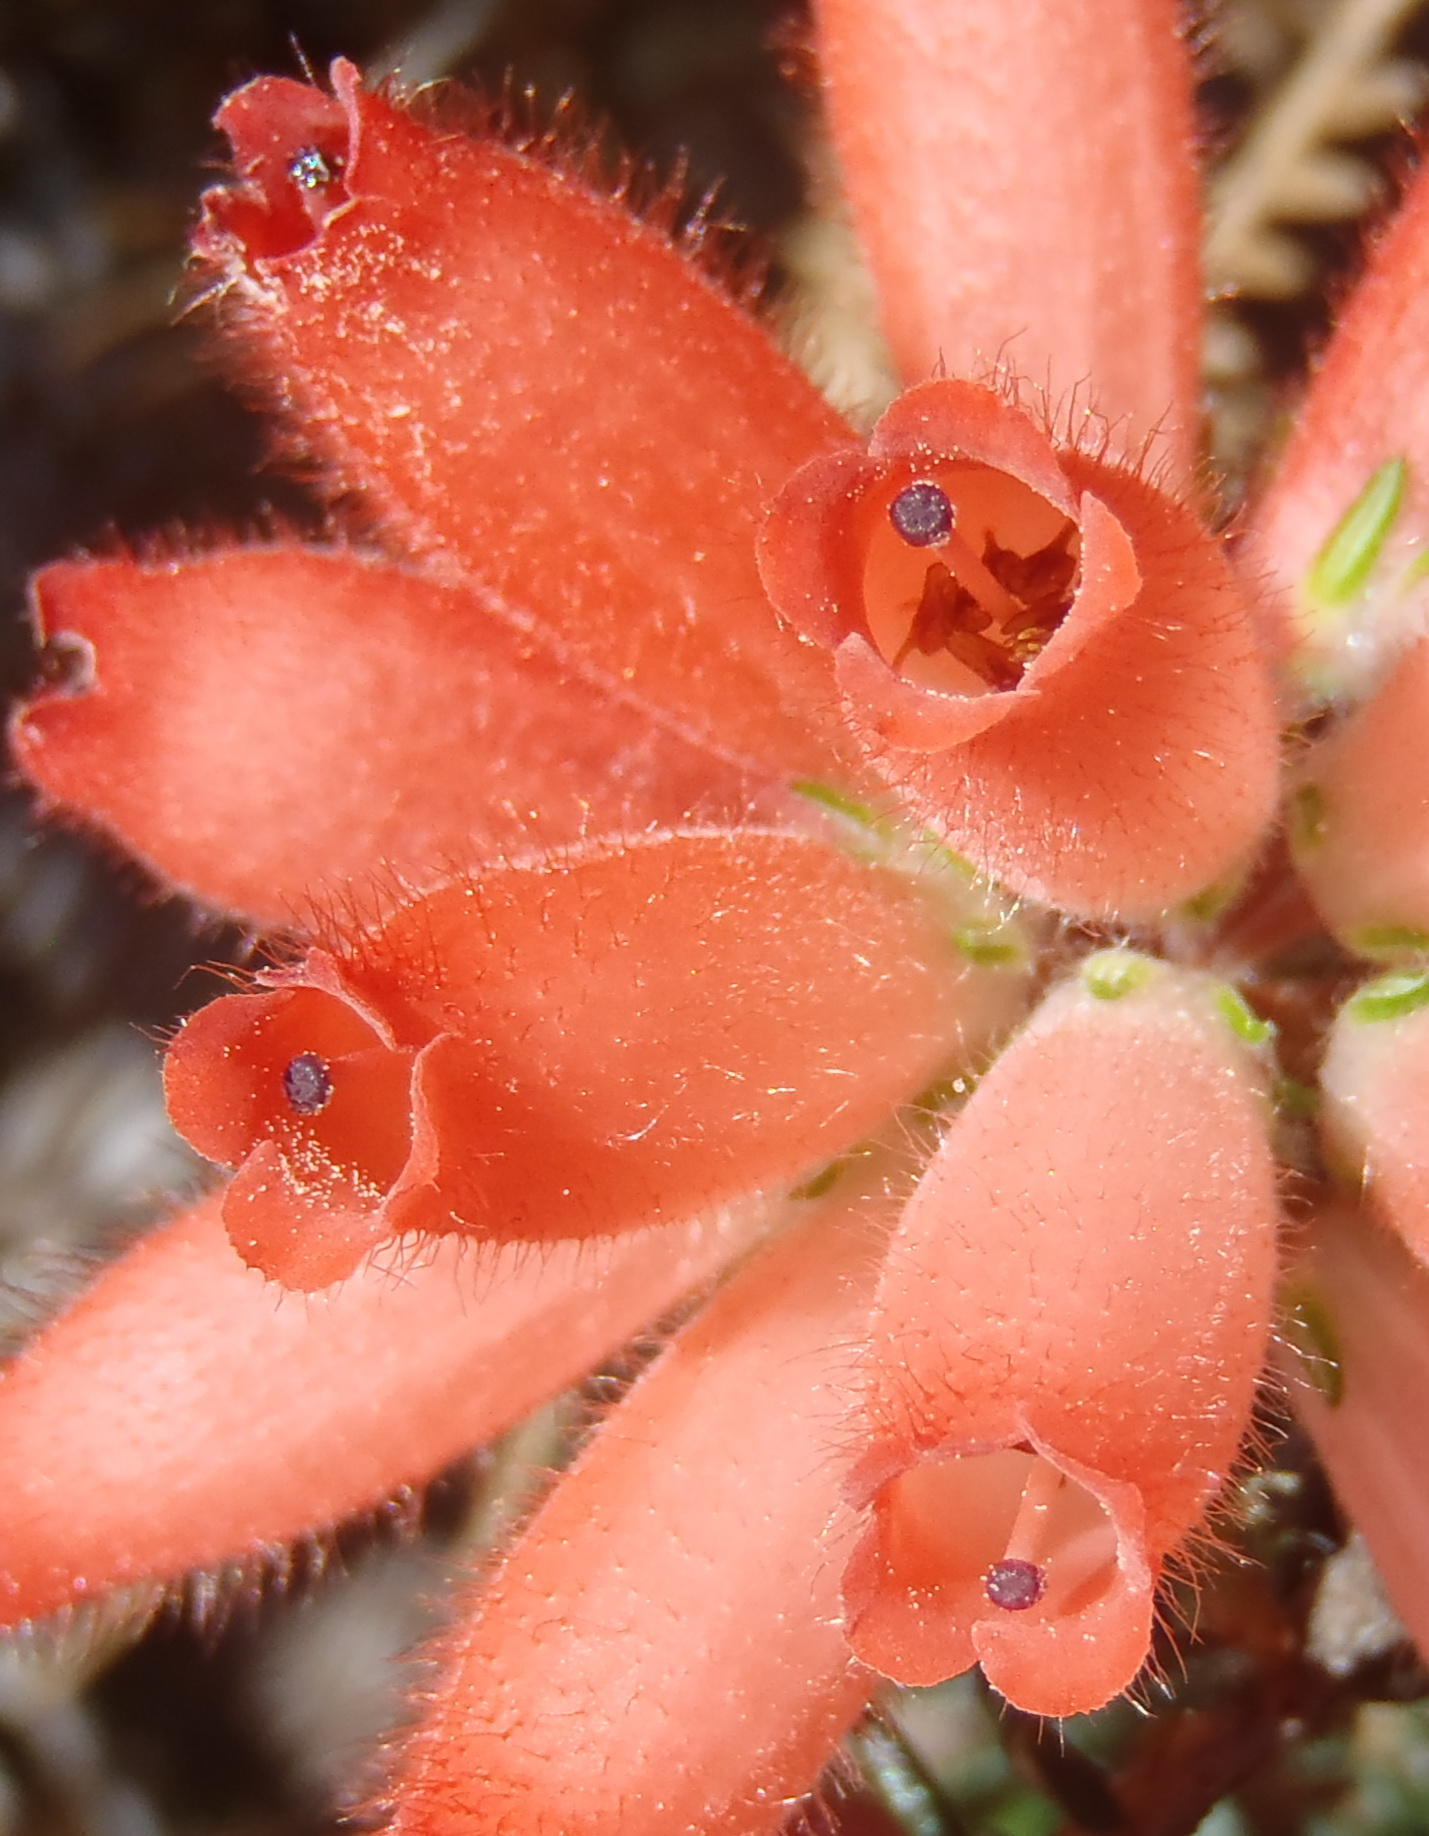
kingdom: Plantae
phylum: Tracheophyta
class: Magnoliopsida
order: Ericales
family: Ericaceae
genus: Erica
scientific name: Erica cerinthoides
